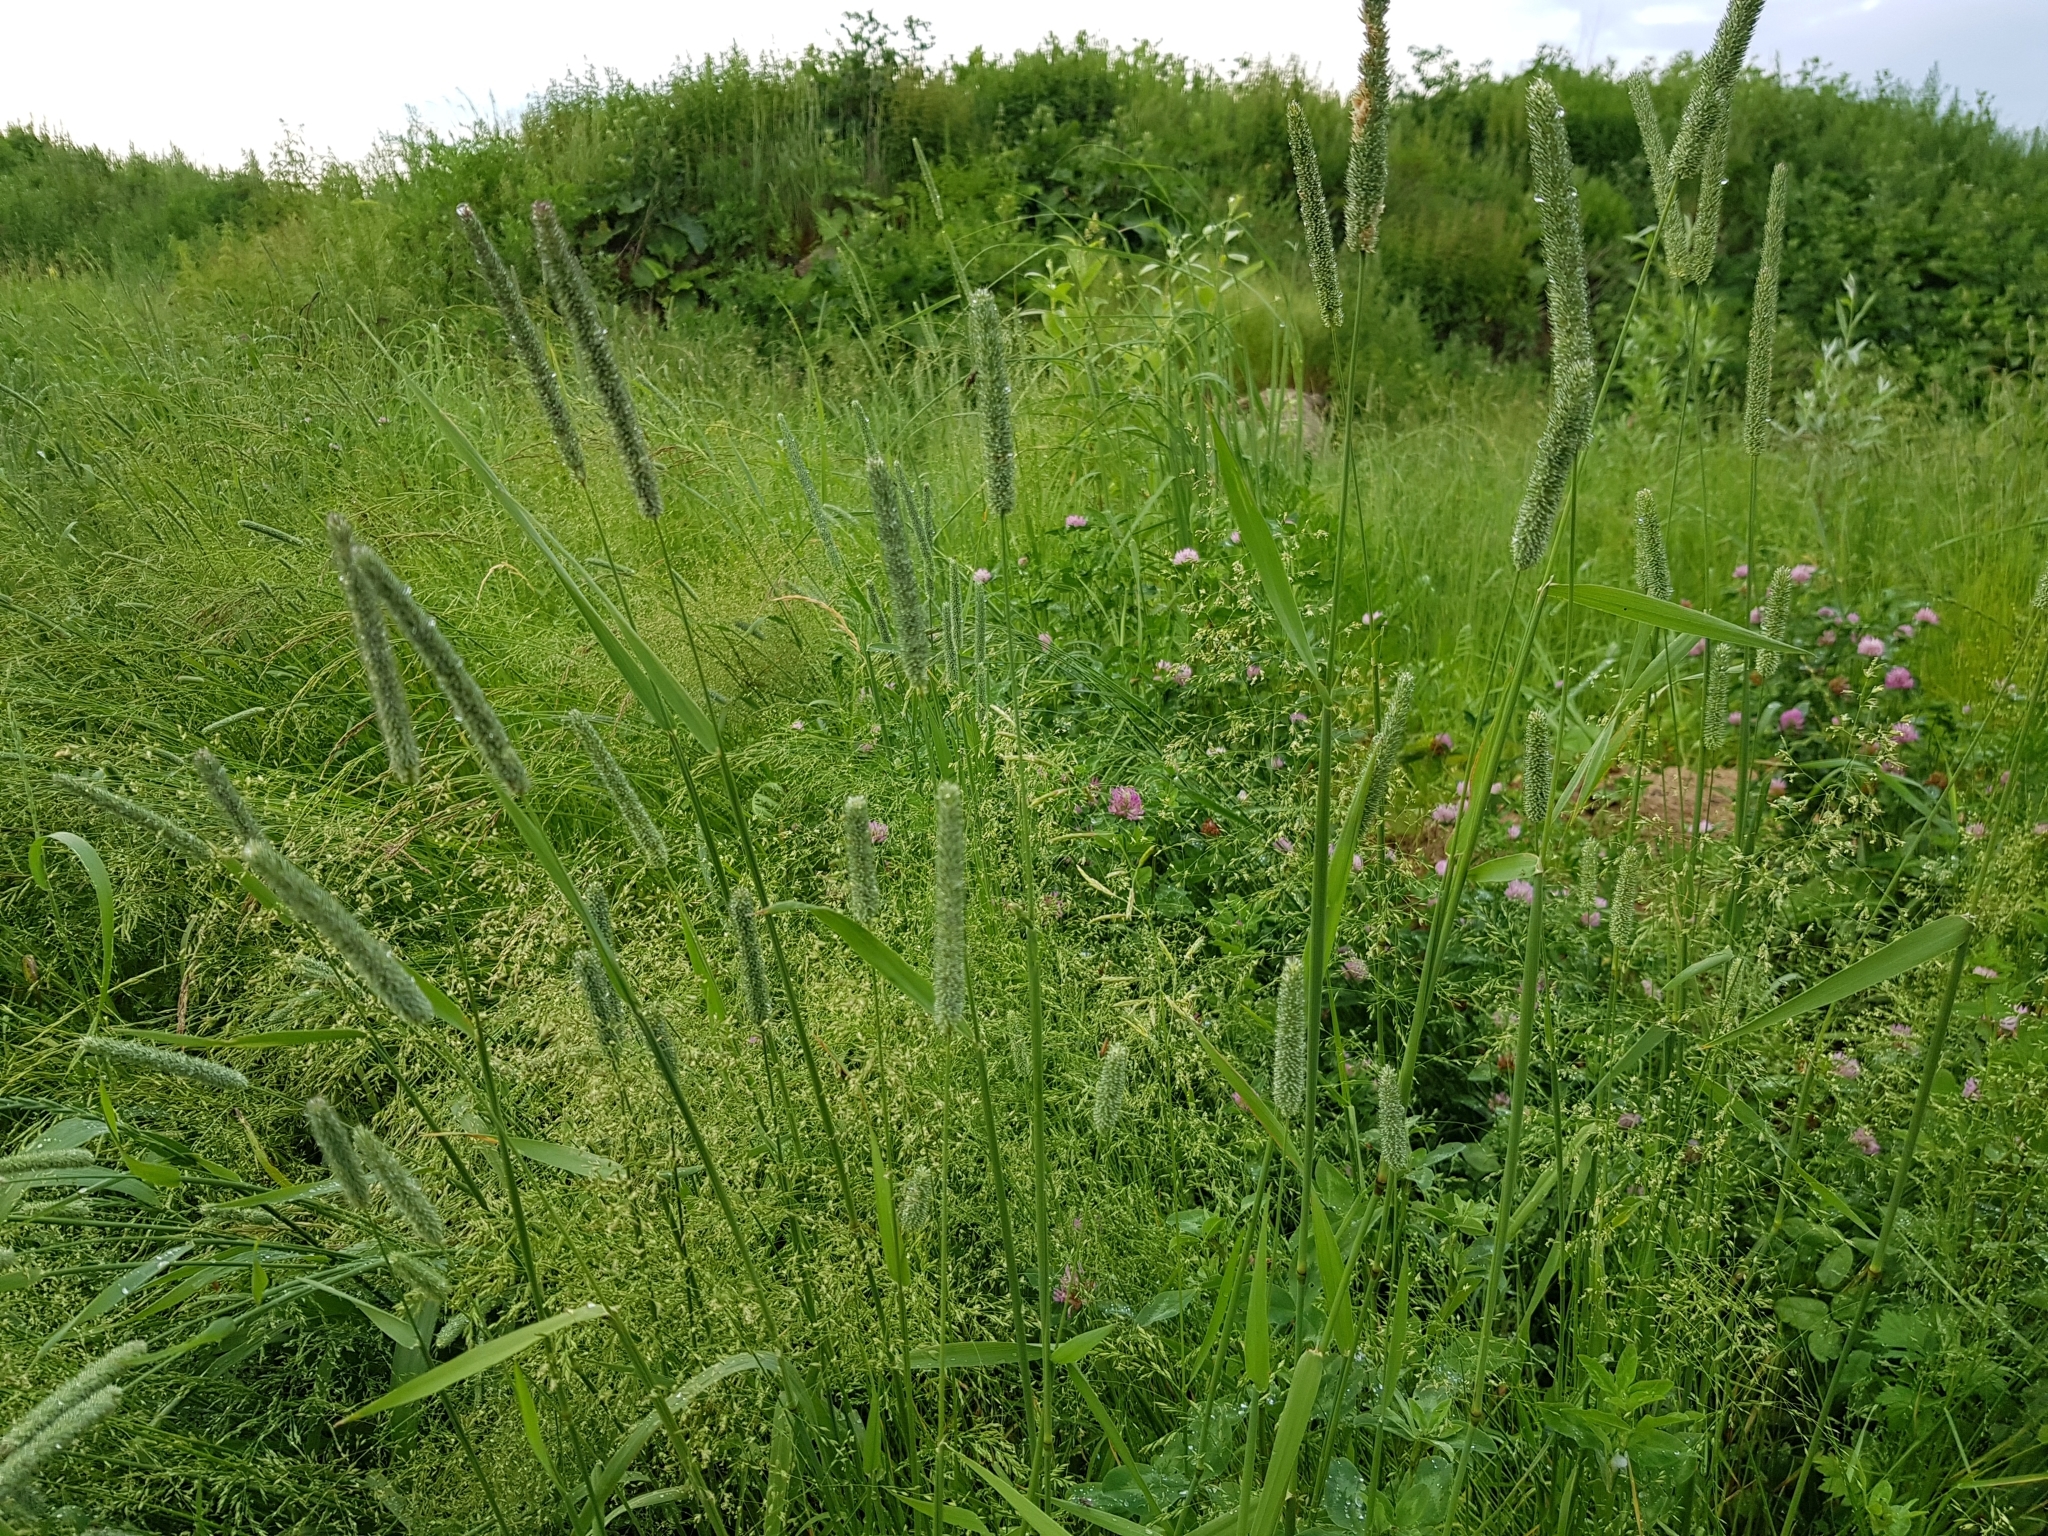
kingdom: Plantae
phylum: Tracheophyta
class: Liliopsida
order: Poales
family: Poaceae
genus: Phleum
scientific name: Phleum pratense
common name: Timothy grass
